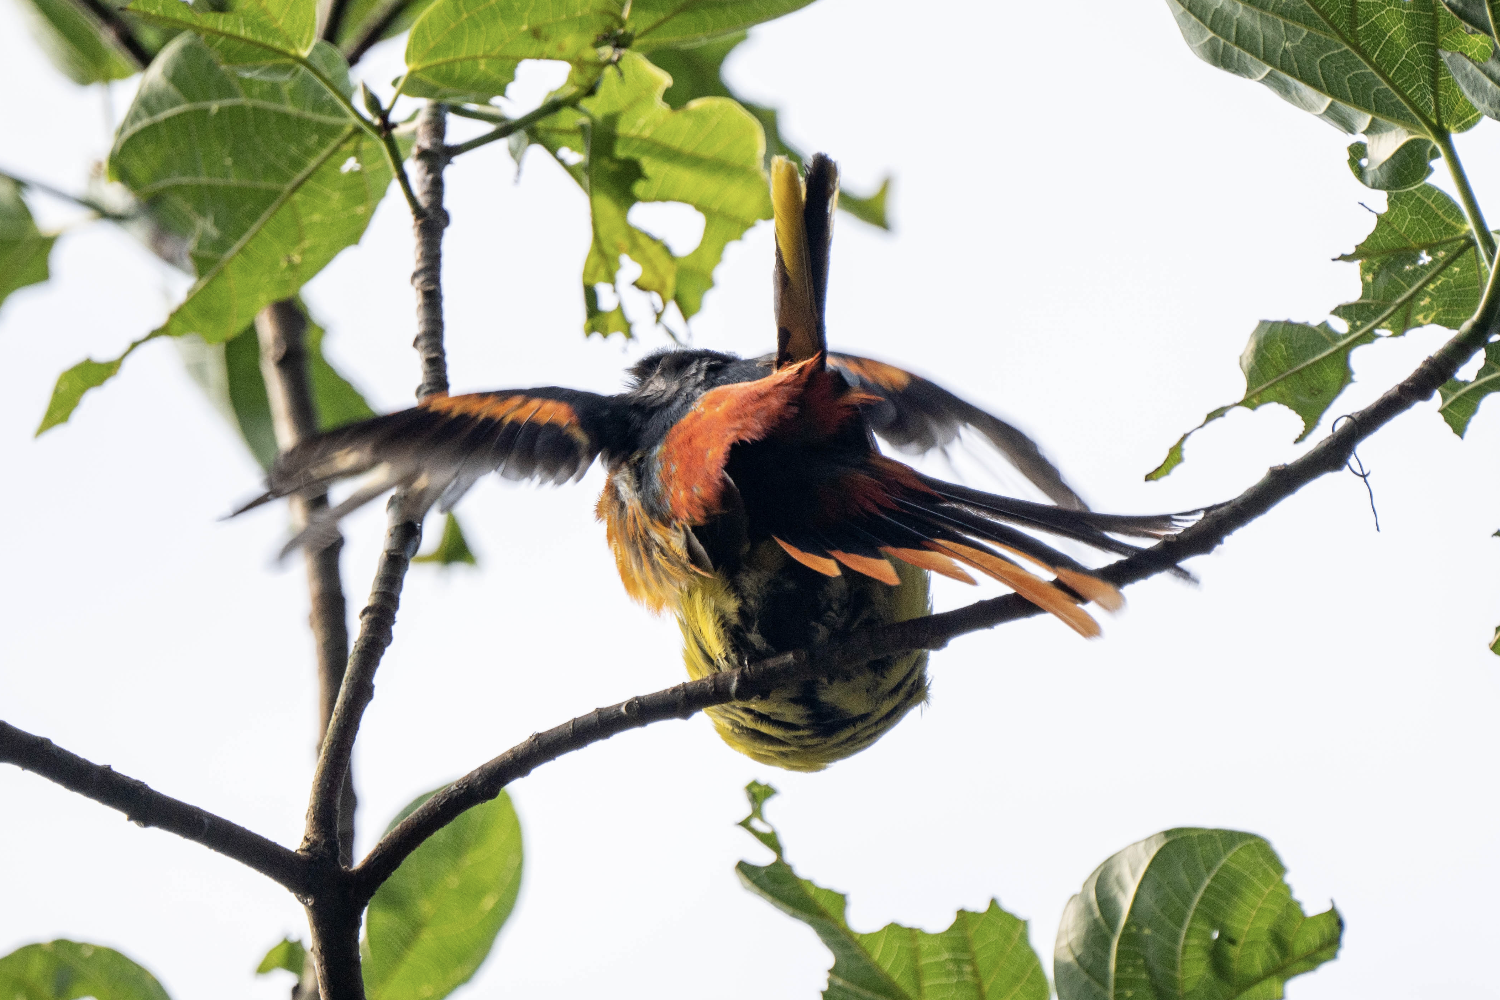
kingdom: Animalia
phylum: Chordata
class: Aves
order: Passeriformes
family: Campephagidae
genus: Pericrocotus
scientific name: Pericrocotus speciosus
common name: Scarlet minivet
